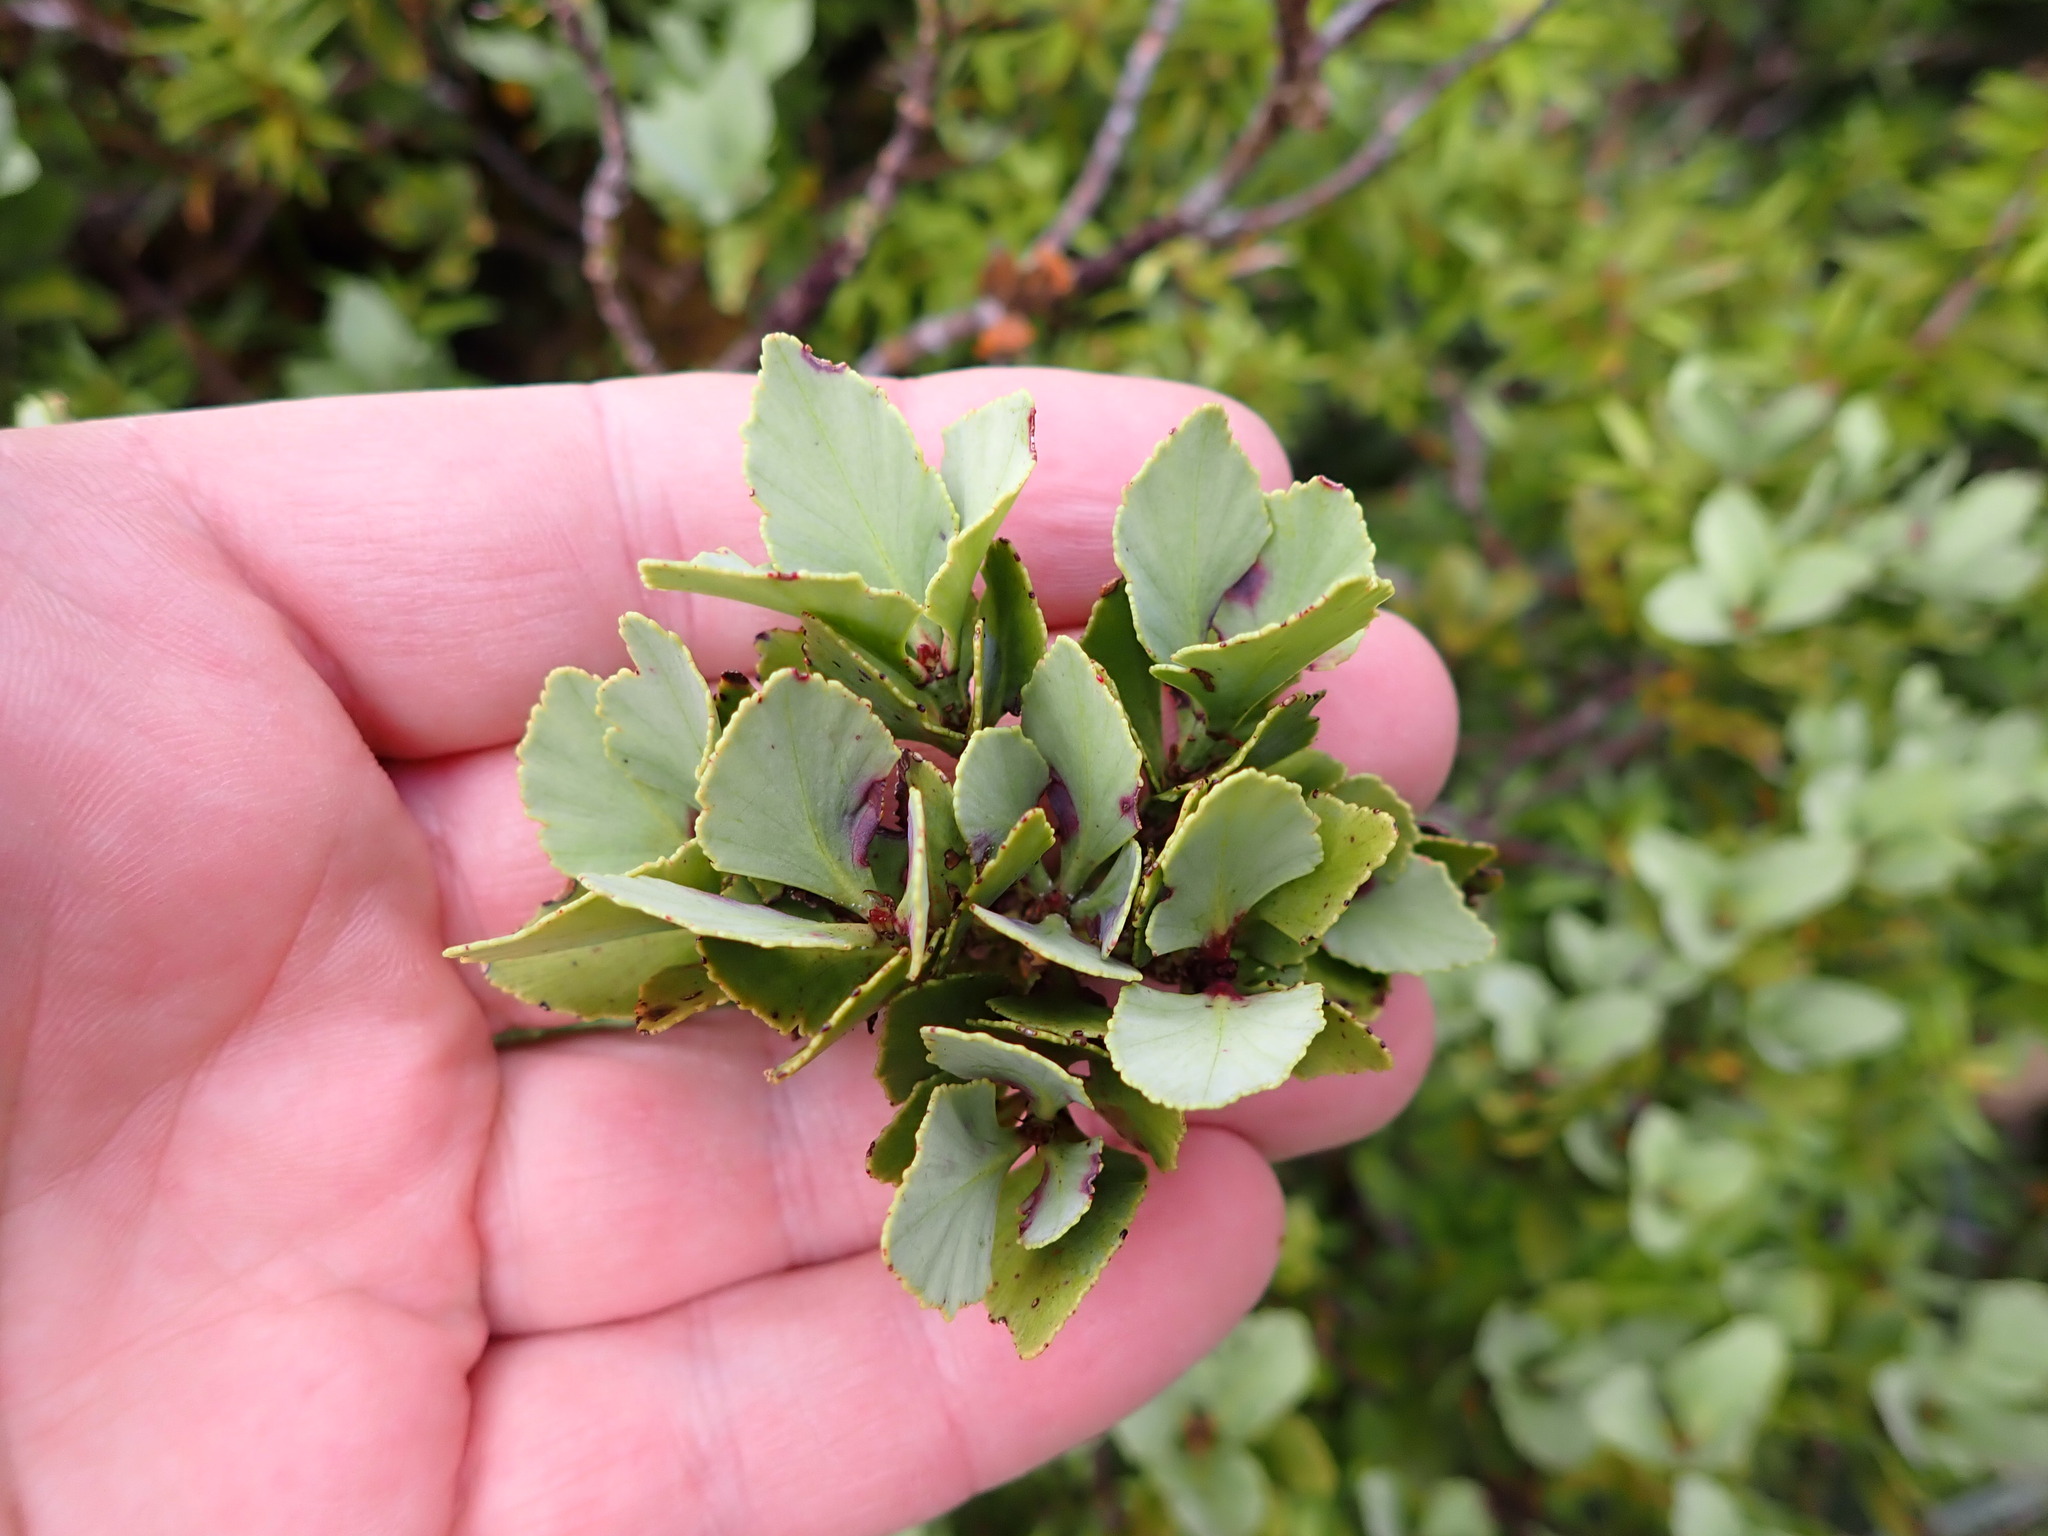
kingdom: Plantae
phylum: Tracheophyta
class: Pinopsida
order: Pinales
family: Phyllocladaceae
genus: Phyllocladus
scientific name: Phyllocladus trichomanoides
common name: Celery pine
